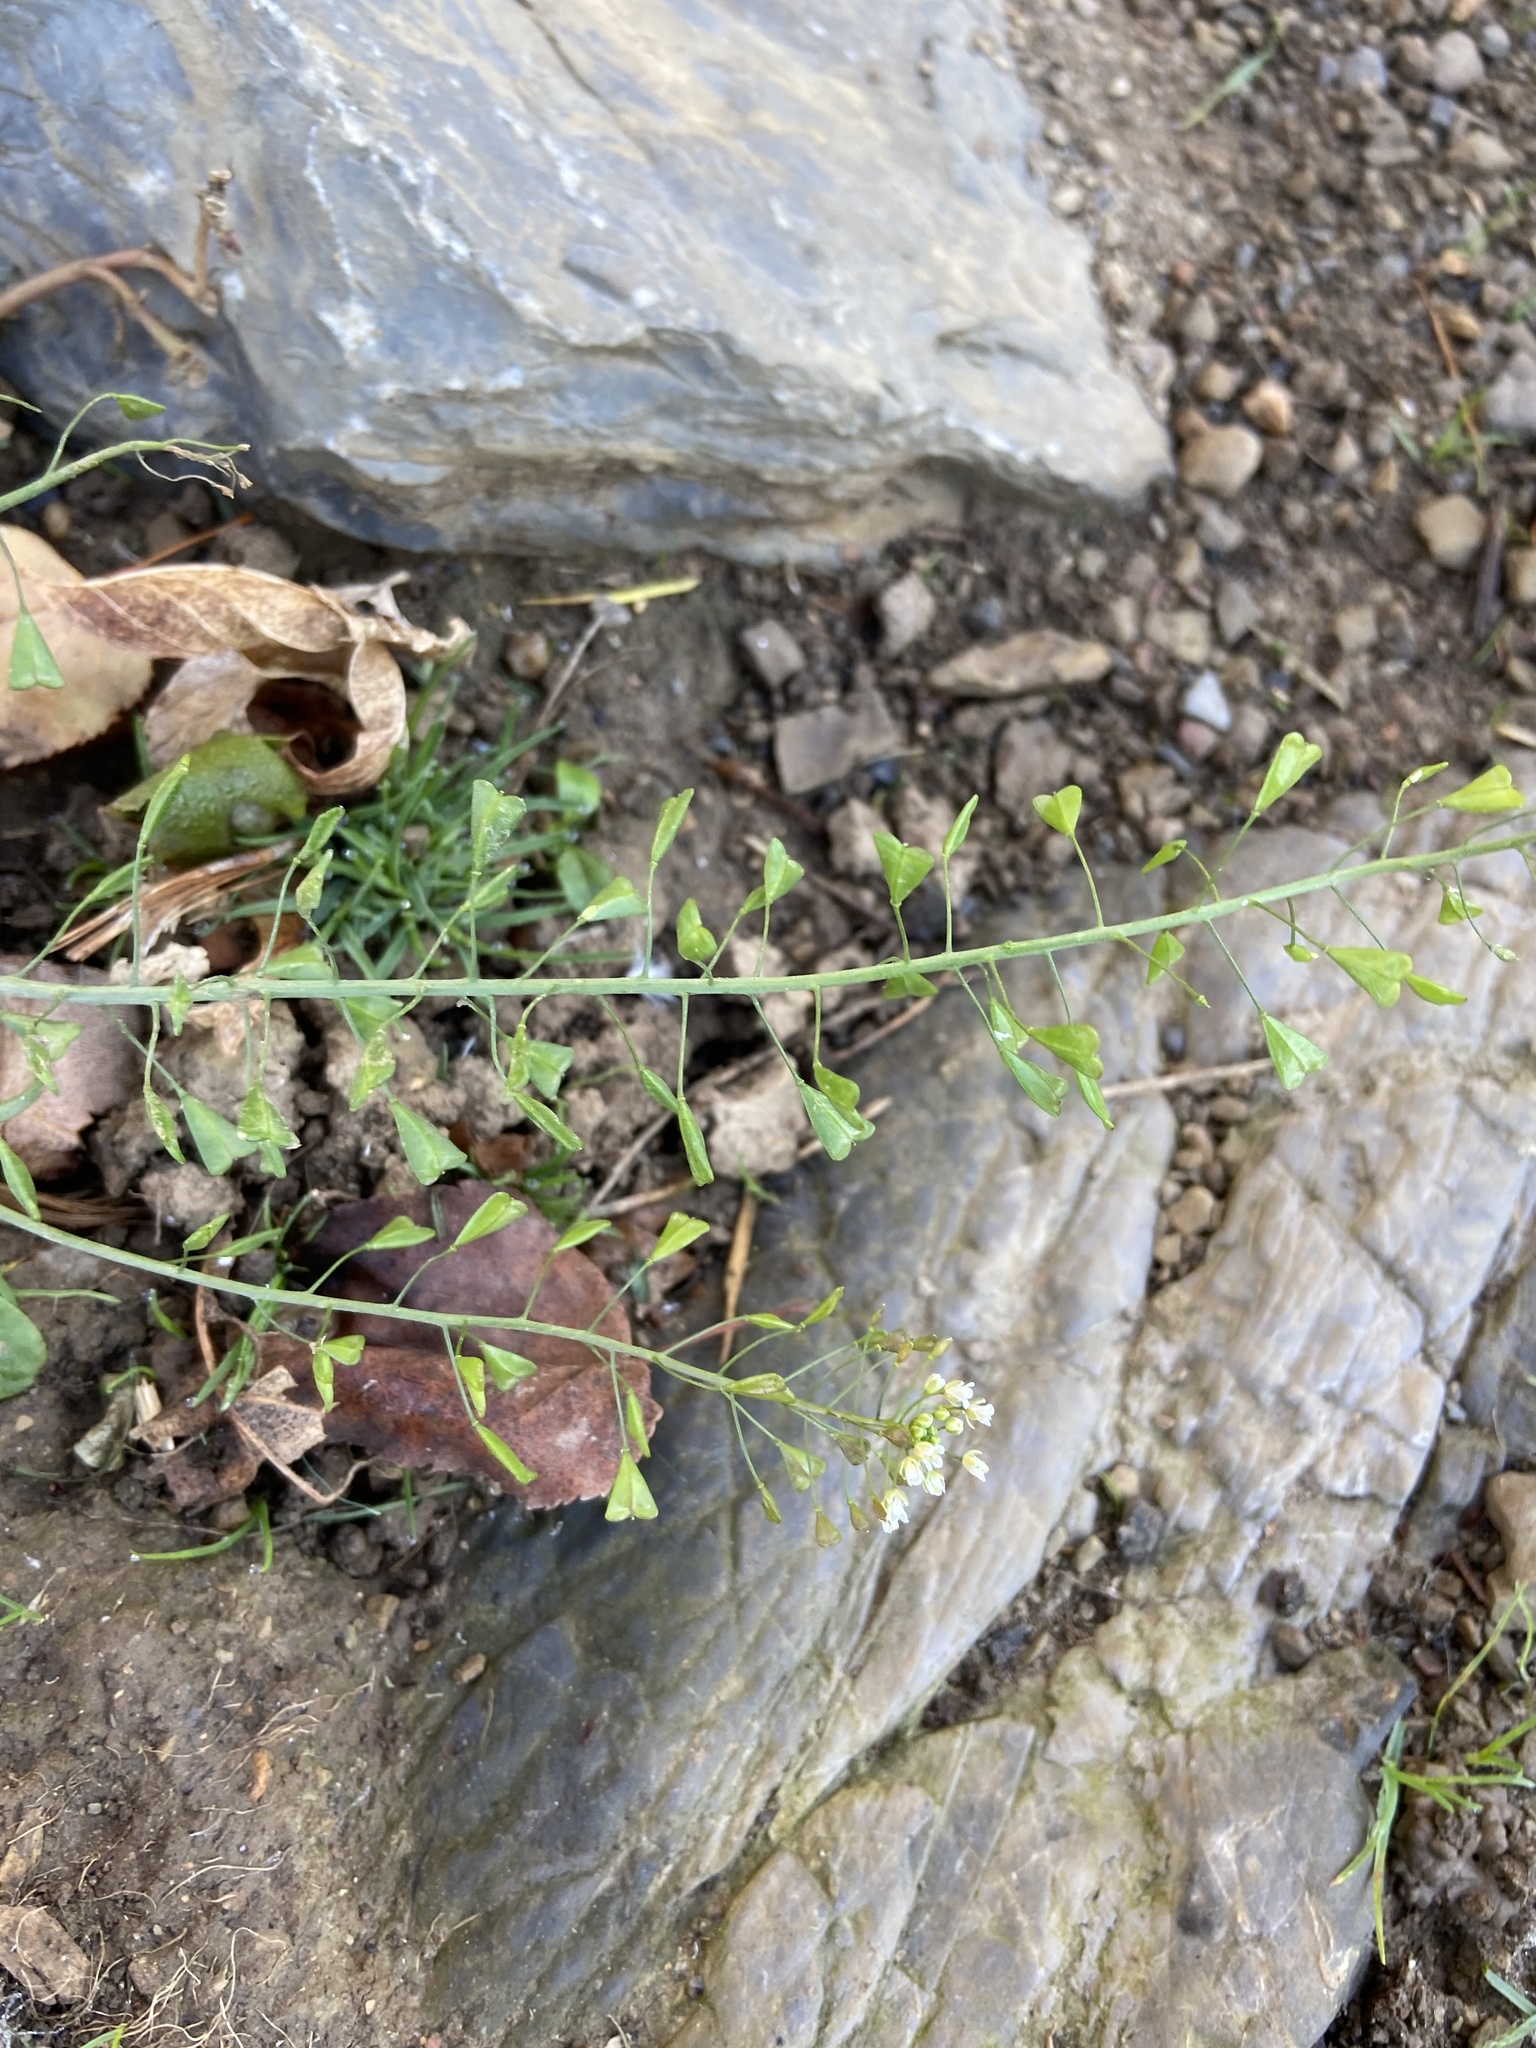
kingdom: Plantae
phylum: Tracheophyta
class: Magnoliopsida
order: Brassicales
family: Brassicaceae
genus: Capsella
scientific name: Capsella bursa-pastoris
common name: Shepherd's purse
